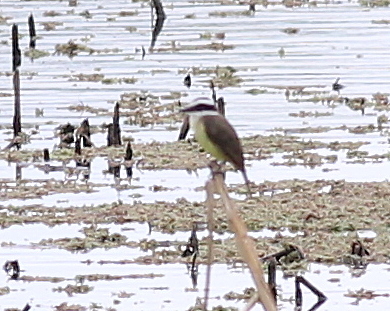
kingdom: Animalia
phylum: Chordata
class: Aves
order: Passeriformes
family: Tyrannidae
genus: Pitangus
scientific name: Pitangus sulphuratus
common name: Great kiskadee
